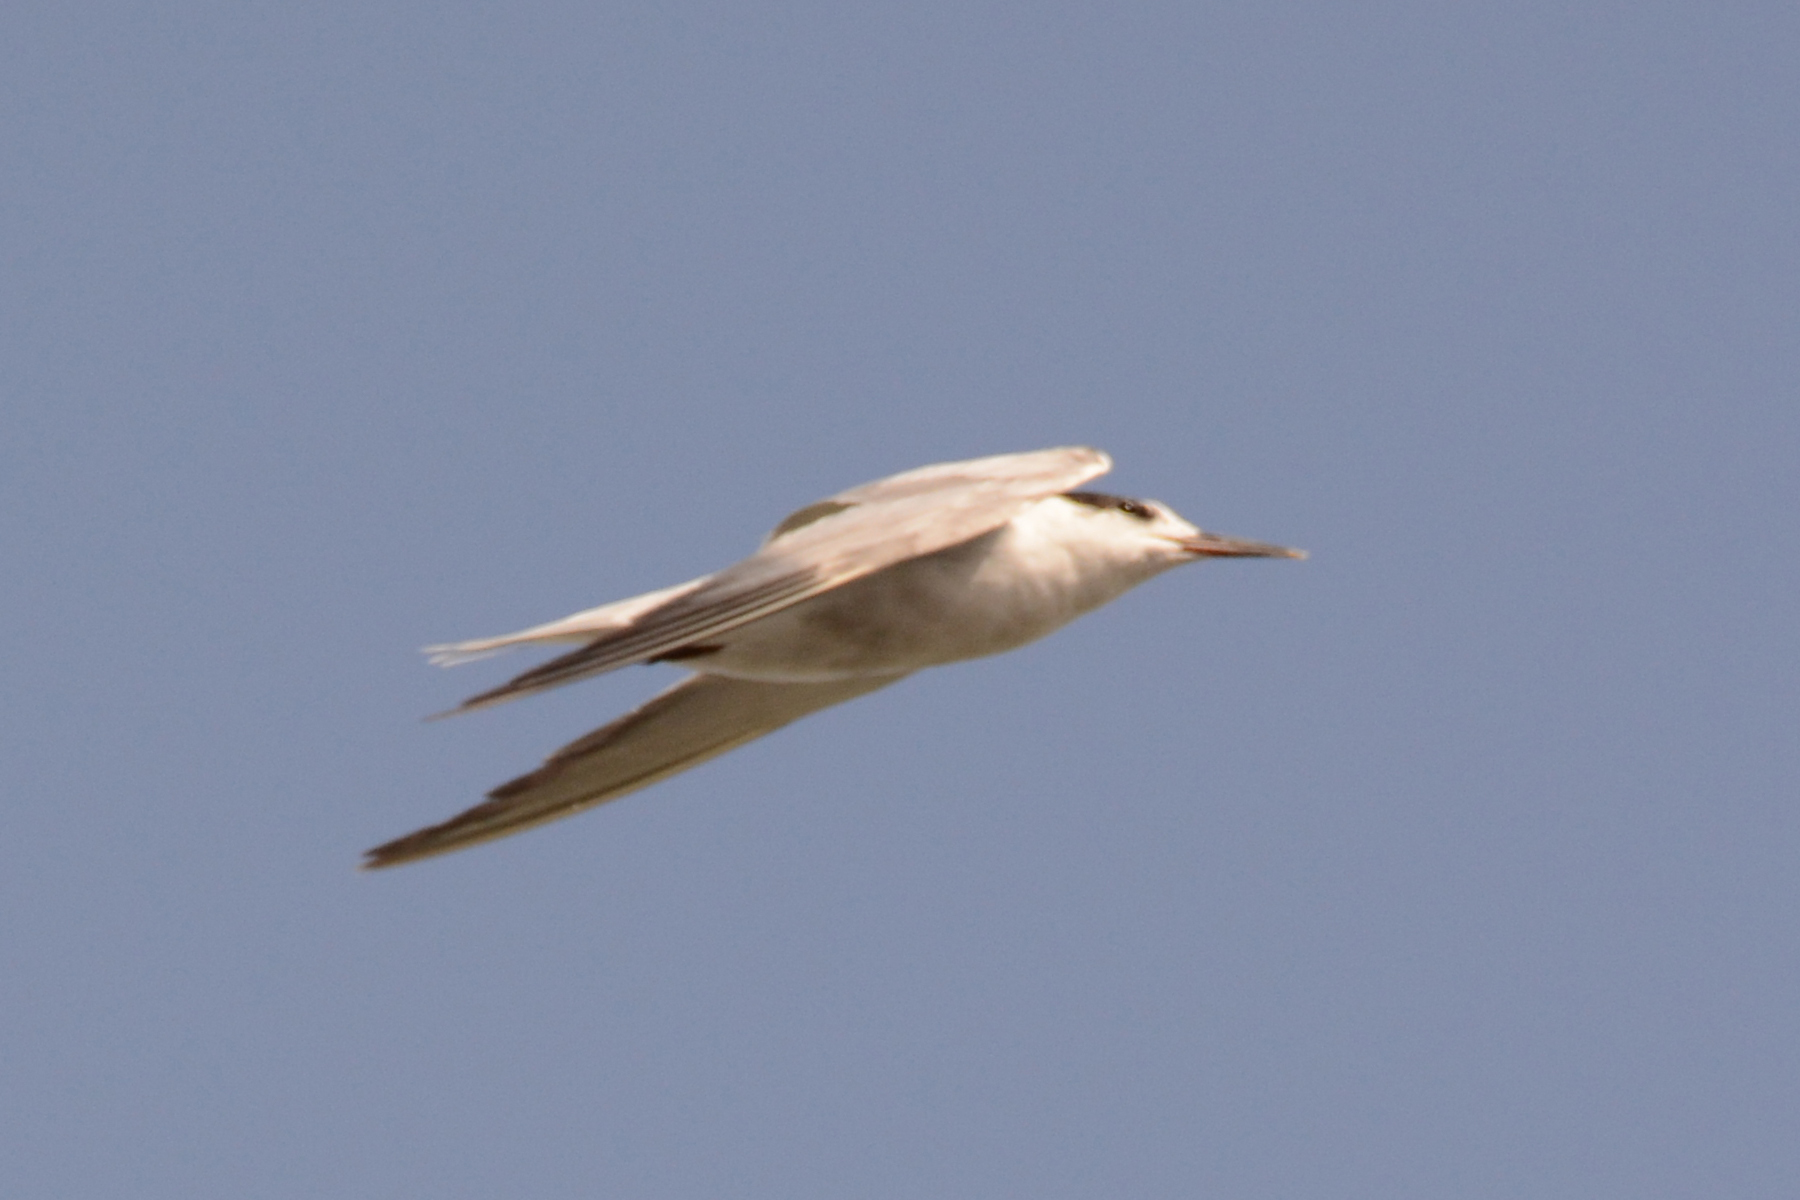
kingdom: Animalia
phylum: Chordata
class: Aves
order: Charadriiformes
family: Laridae
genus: Thalasseus
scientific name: Thalasseus sandvicensis
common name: Sandwich tern
